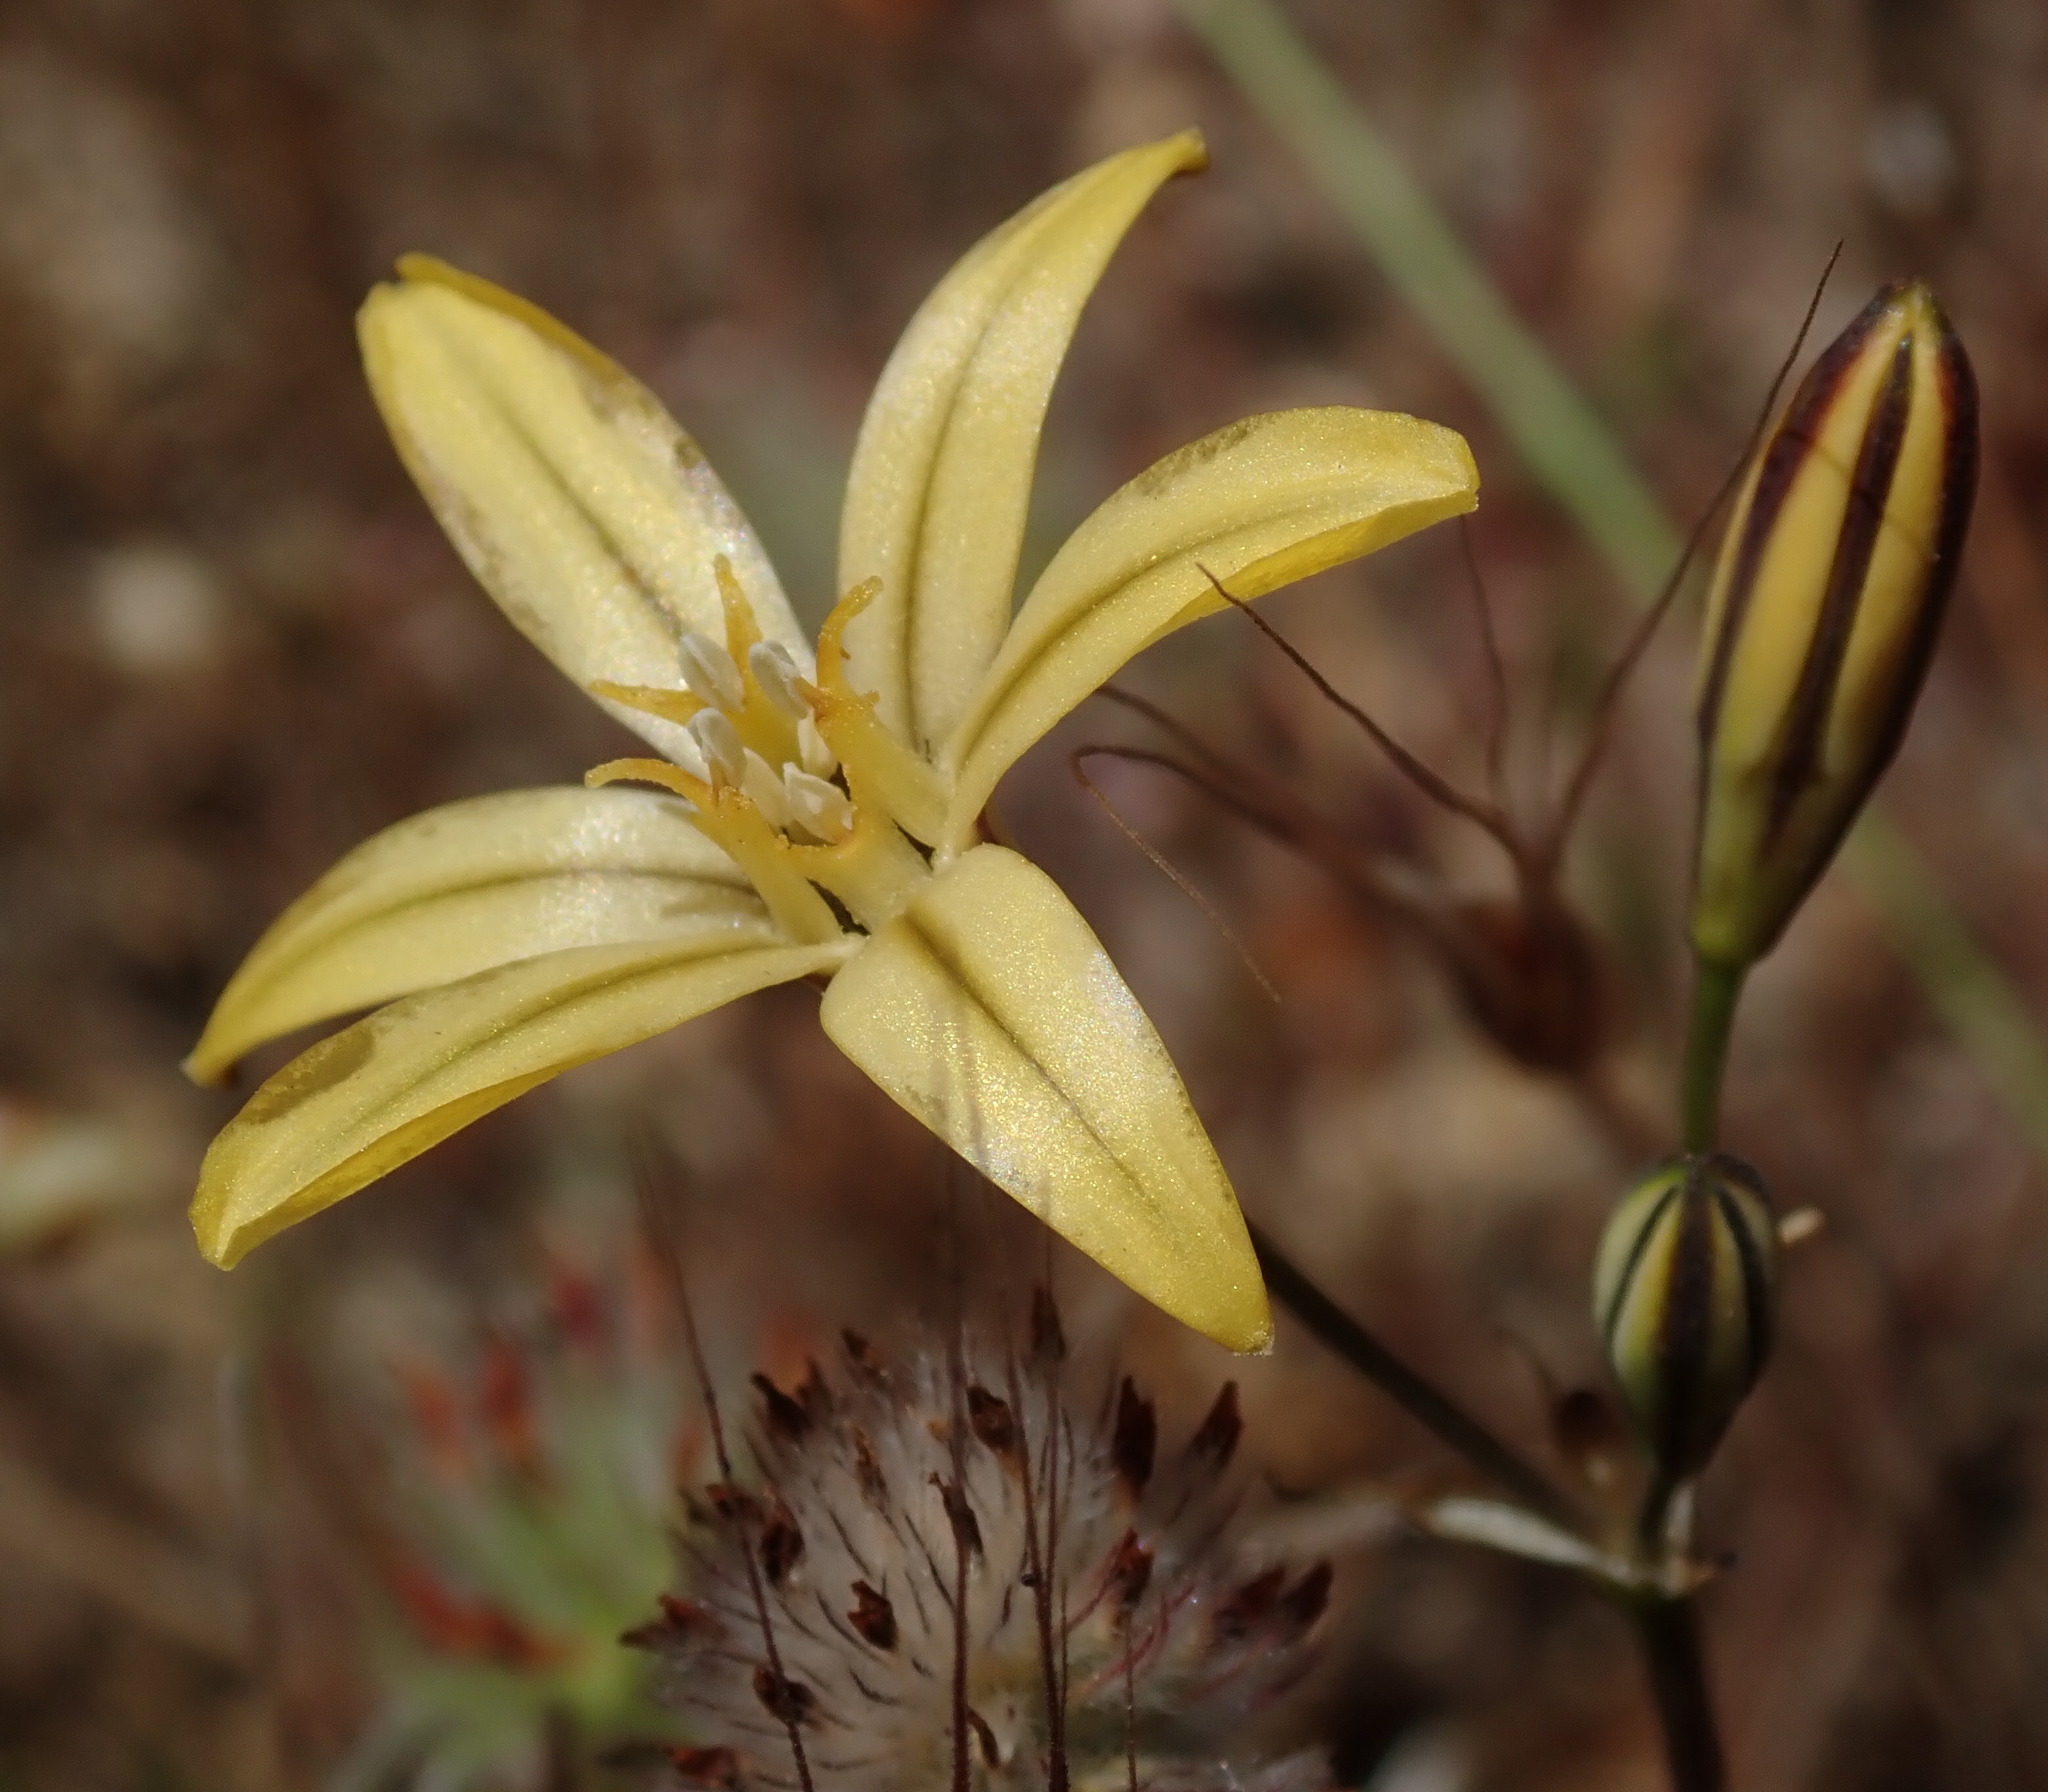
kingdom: Plantae
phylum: Tracheophyta
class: Liliopsida
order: Asparagales
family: Asparagaceae
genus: Triteleia
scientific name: Triteleia ixioides
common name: Yellow-brodiaea
